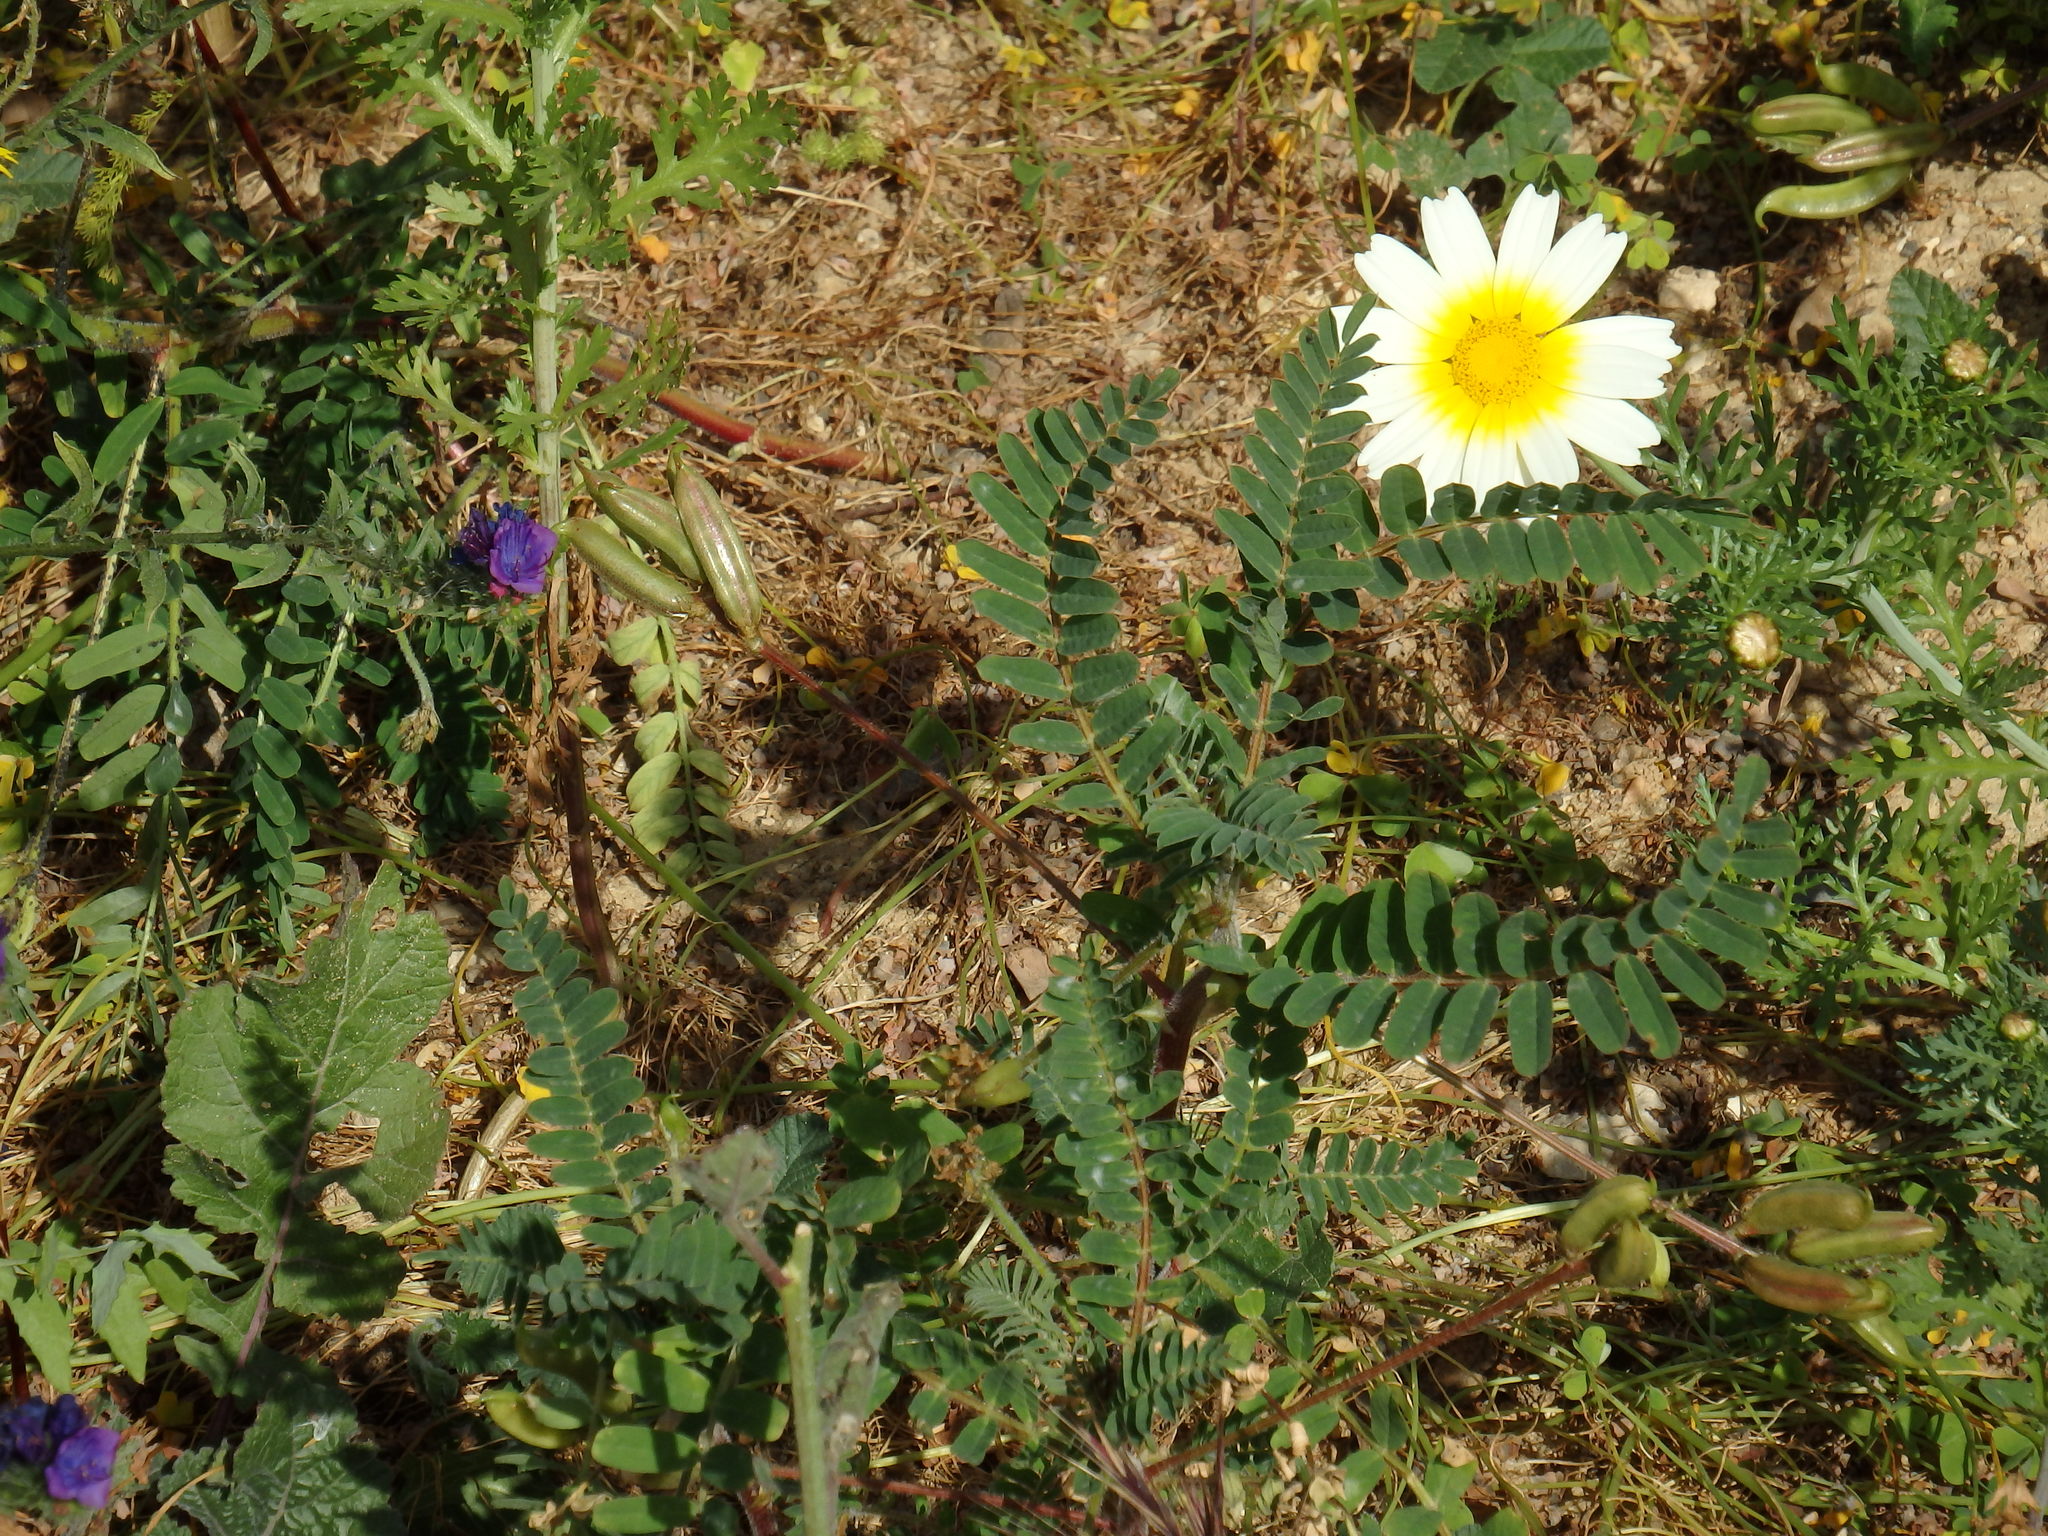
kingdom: Plantae
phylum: Tracheophyta
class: Magnoliopsida
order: Fabales
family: Fabaceae
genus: Astragalus
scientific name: Astragalus boeticus
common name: Milk-vetch
